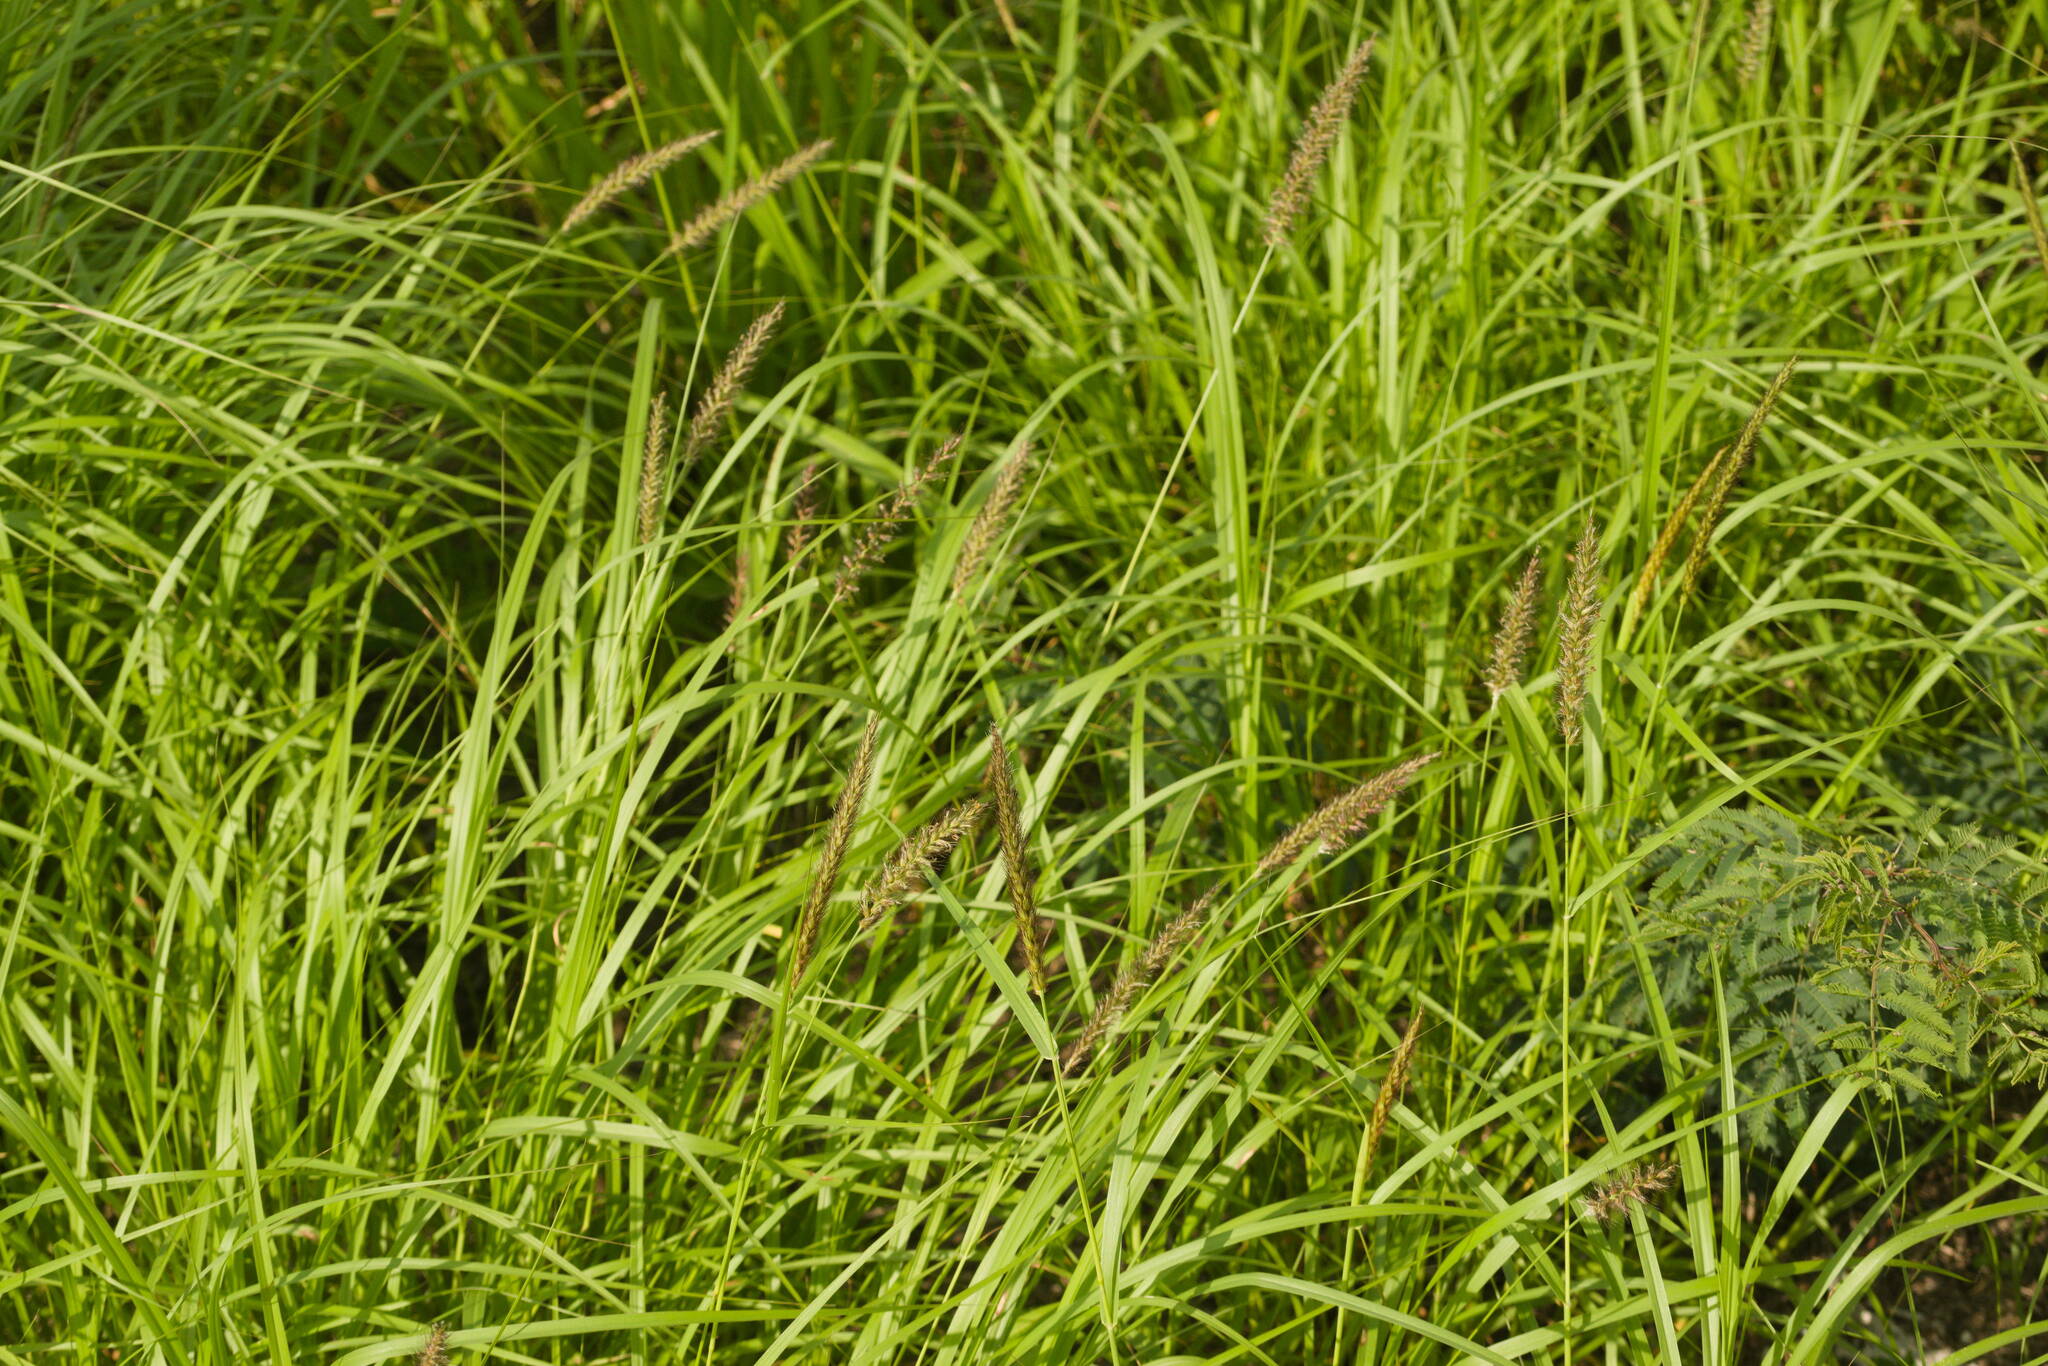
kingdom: Plantae
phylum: Tracheophyta
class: Liliopsida
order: Poales
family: Poaceae
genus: Cenchrus
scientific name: Cenchrus ciliaris
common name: Buffelgrass
